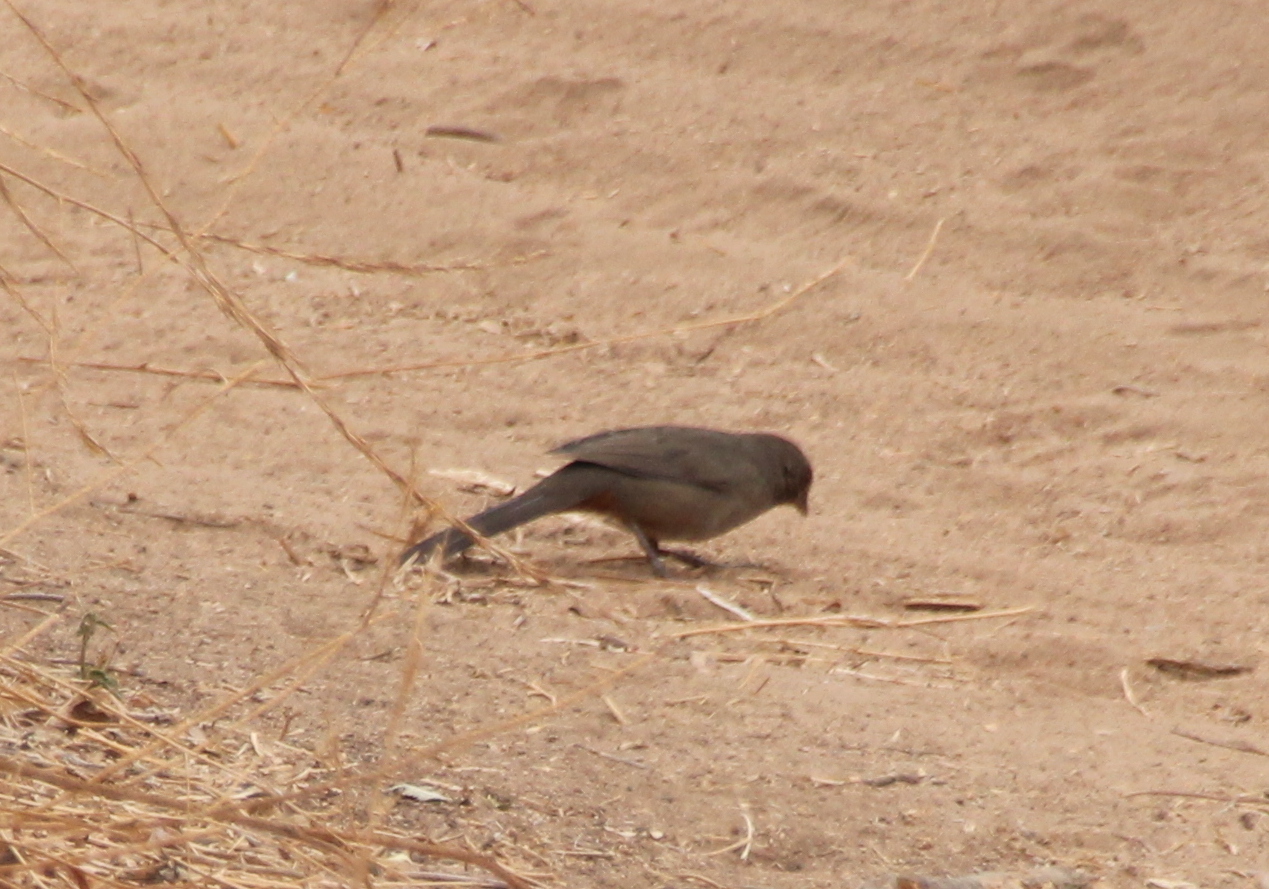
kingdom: Animalia
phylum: Chordata
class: Aves
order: Passeriformes
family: Passerellidae
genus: Melozone
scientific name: Melozone crissalis
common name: California towhee
